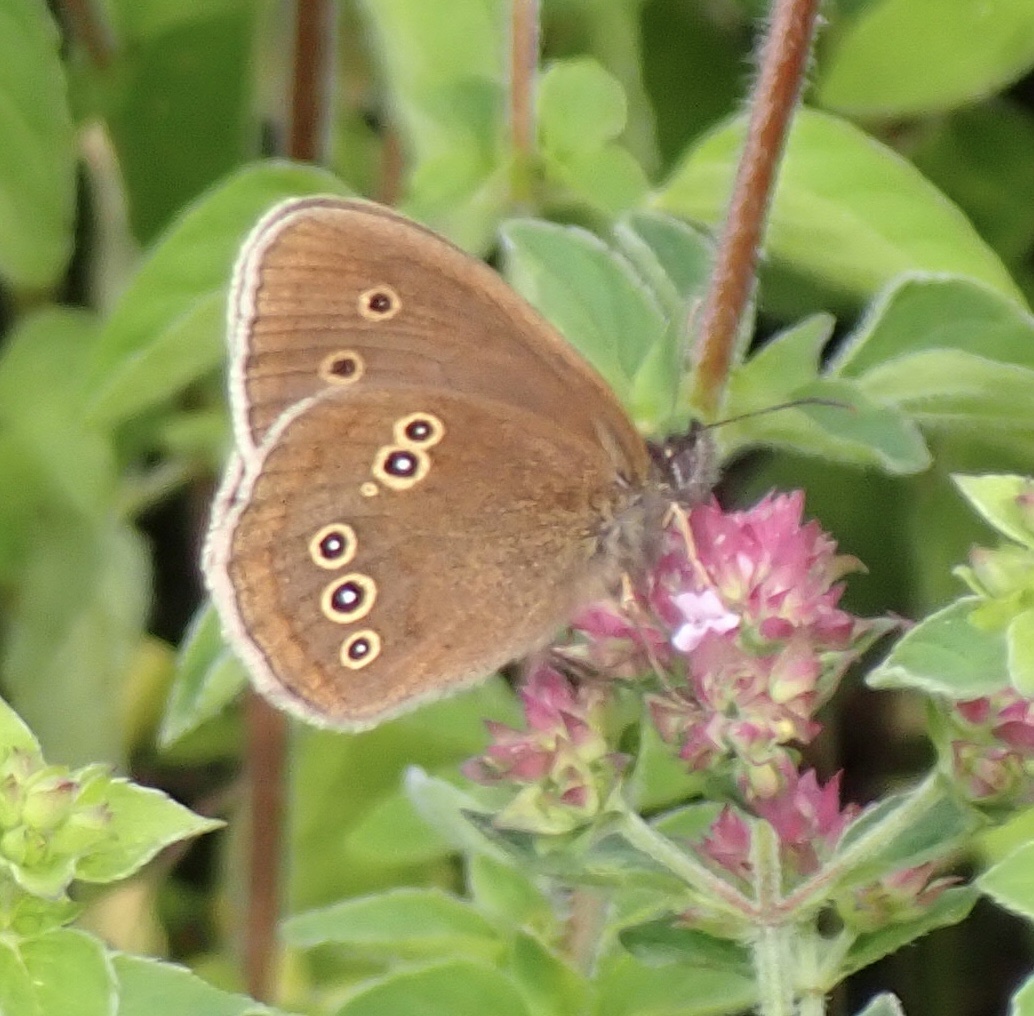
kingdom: Animalia
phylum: Arthropoda
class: Insecta
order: Lepidoptera
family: Nymphalidae
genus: Aphantopus
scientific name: Aphantopus hyperantus
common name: Ringlet
